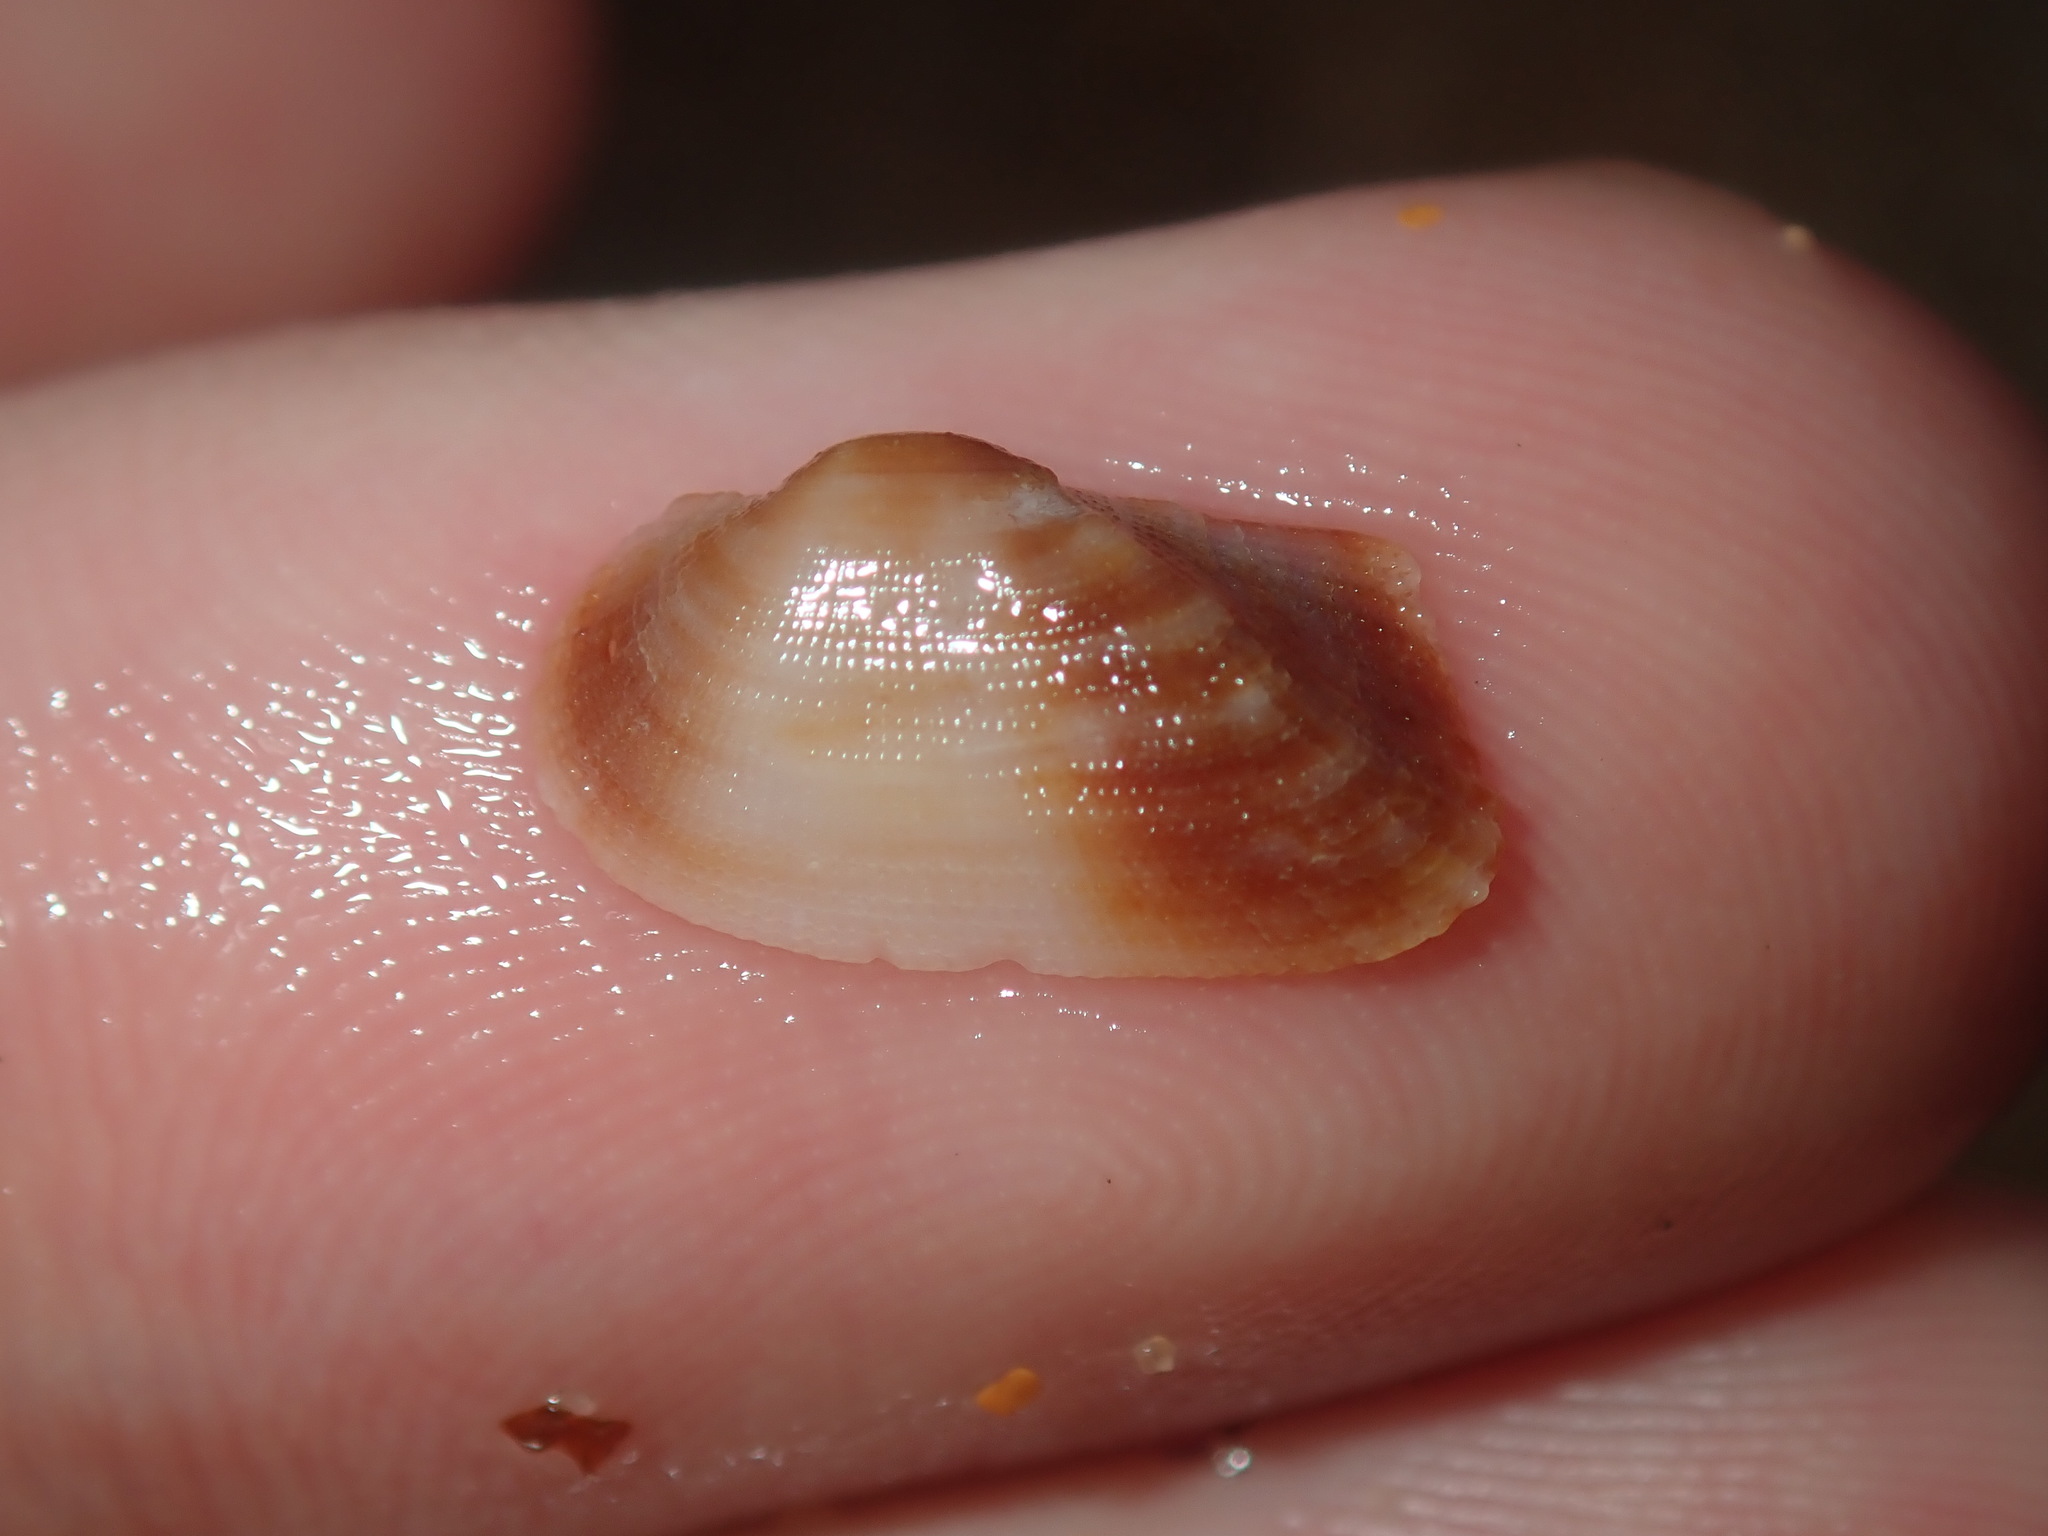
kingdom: Animalia
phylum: Mollusca
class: Bivalvia
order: Arcida
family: Arcidae
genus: Barbatia
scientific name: Barbatia pistachia
